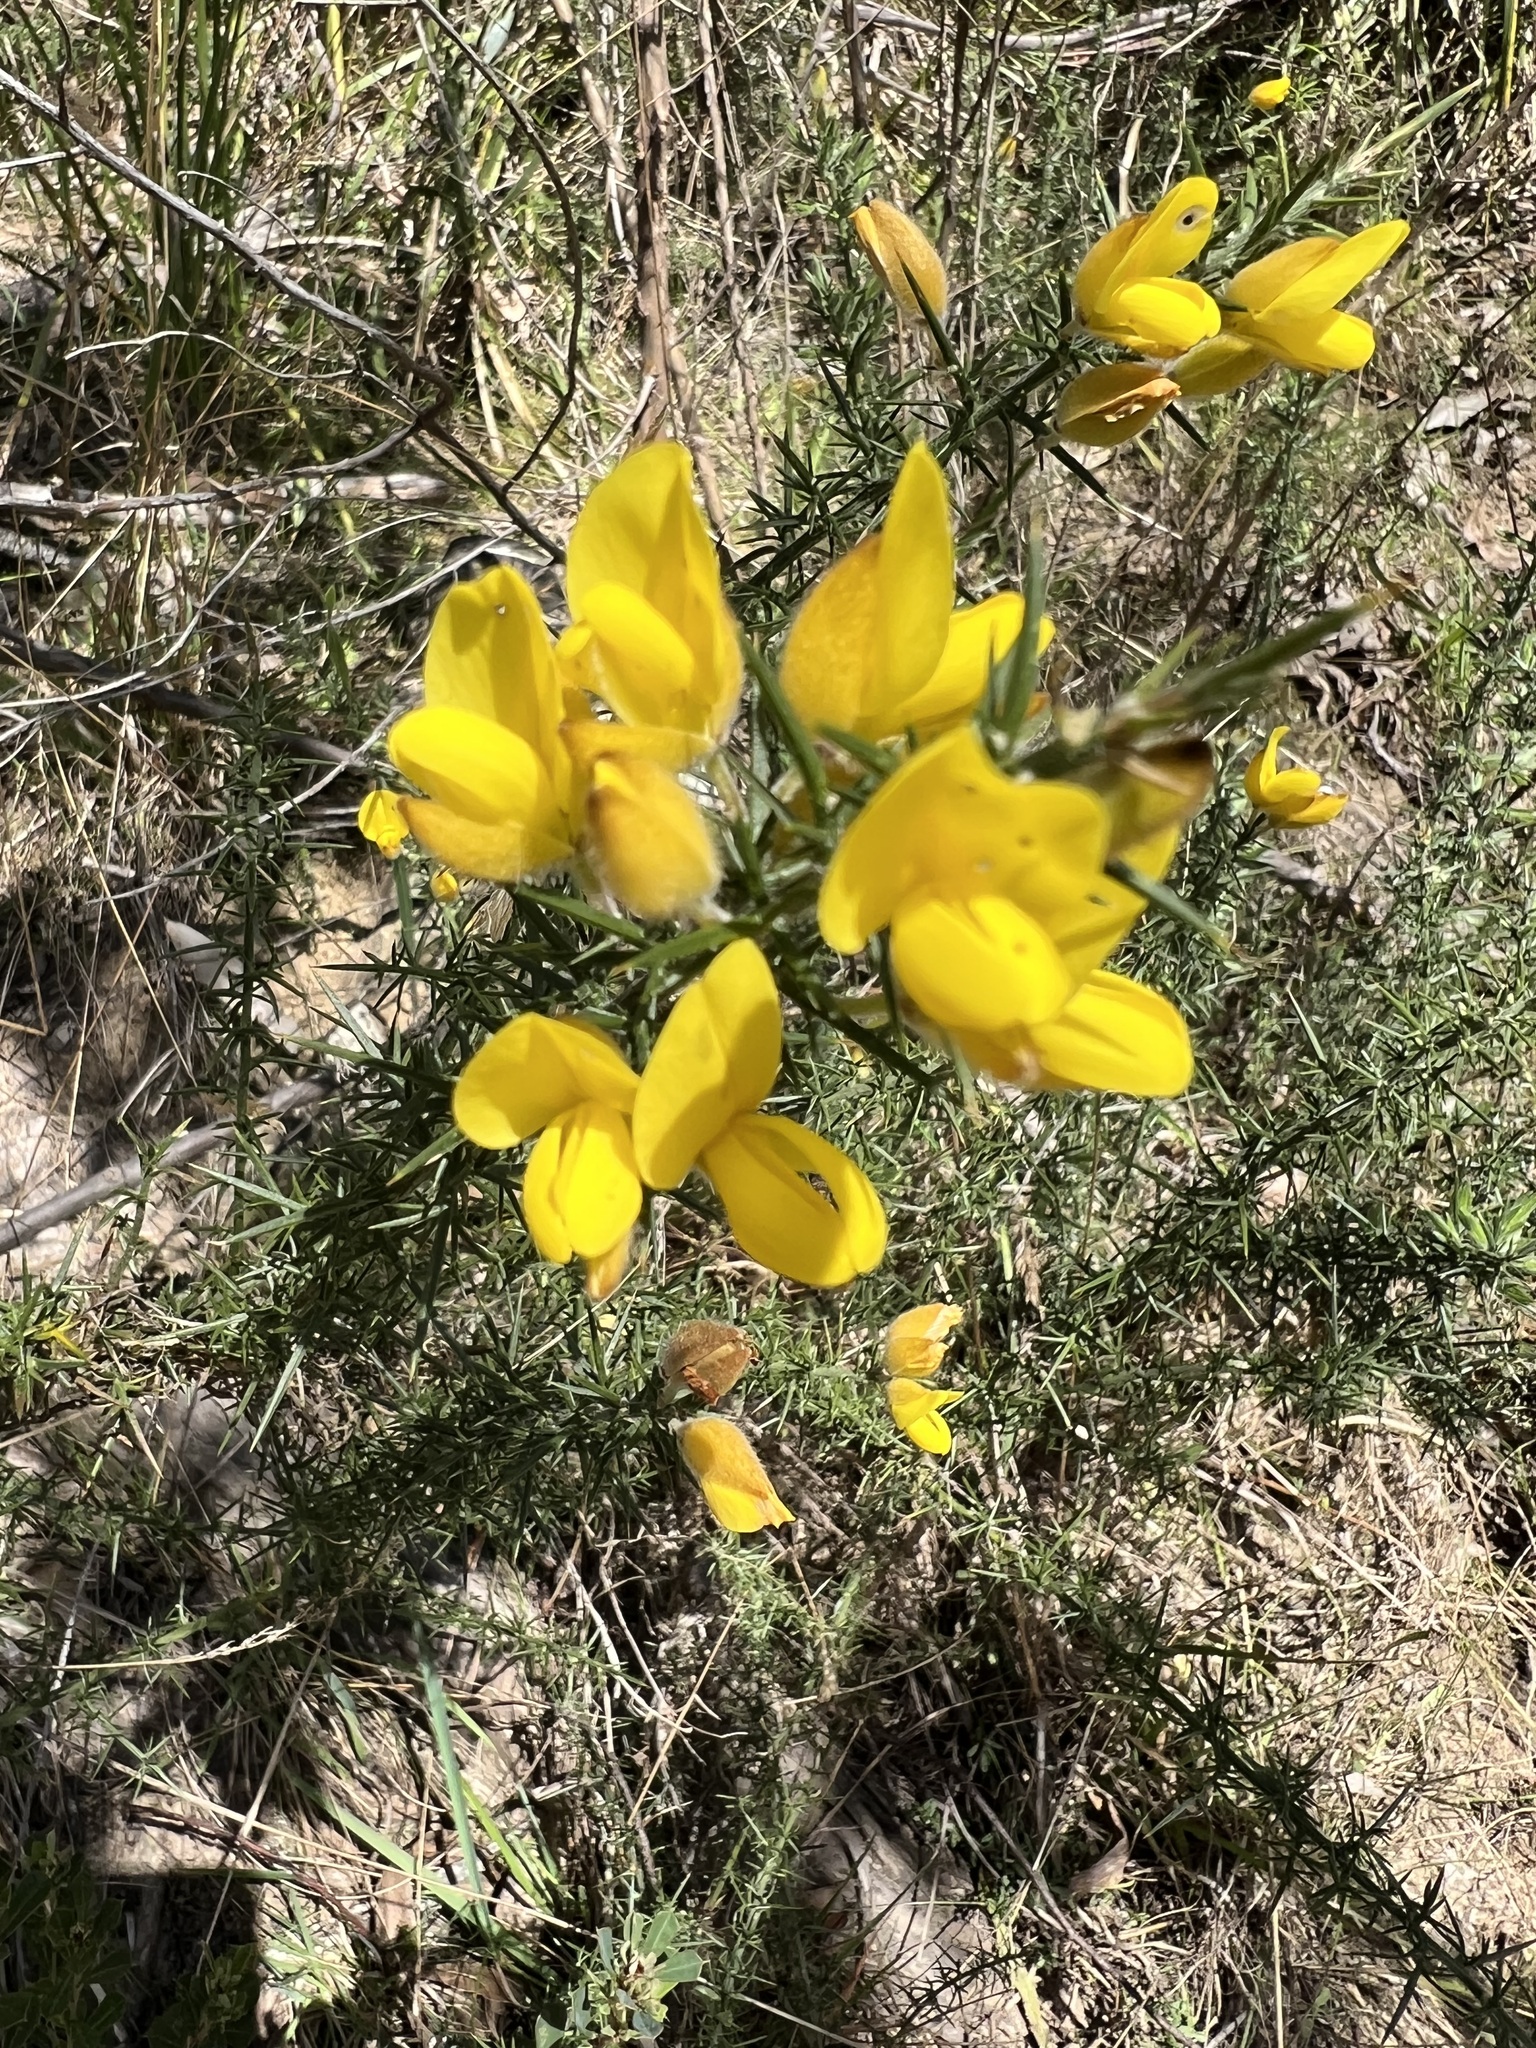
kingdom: Plantae
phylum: Tracheophyta
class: Magnoliopsida
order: Fabales
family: Fabaceae
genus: Ulex
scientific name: Ulex europaeus
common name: Common gorse
